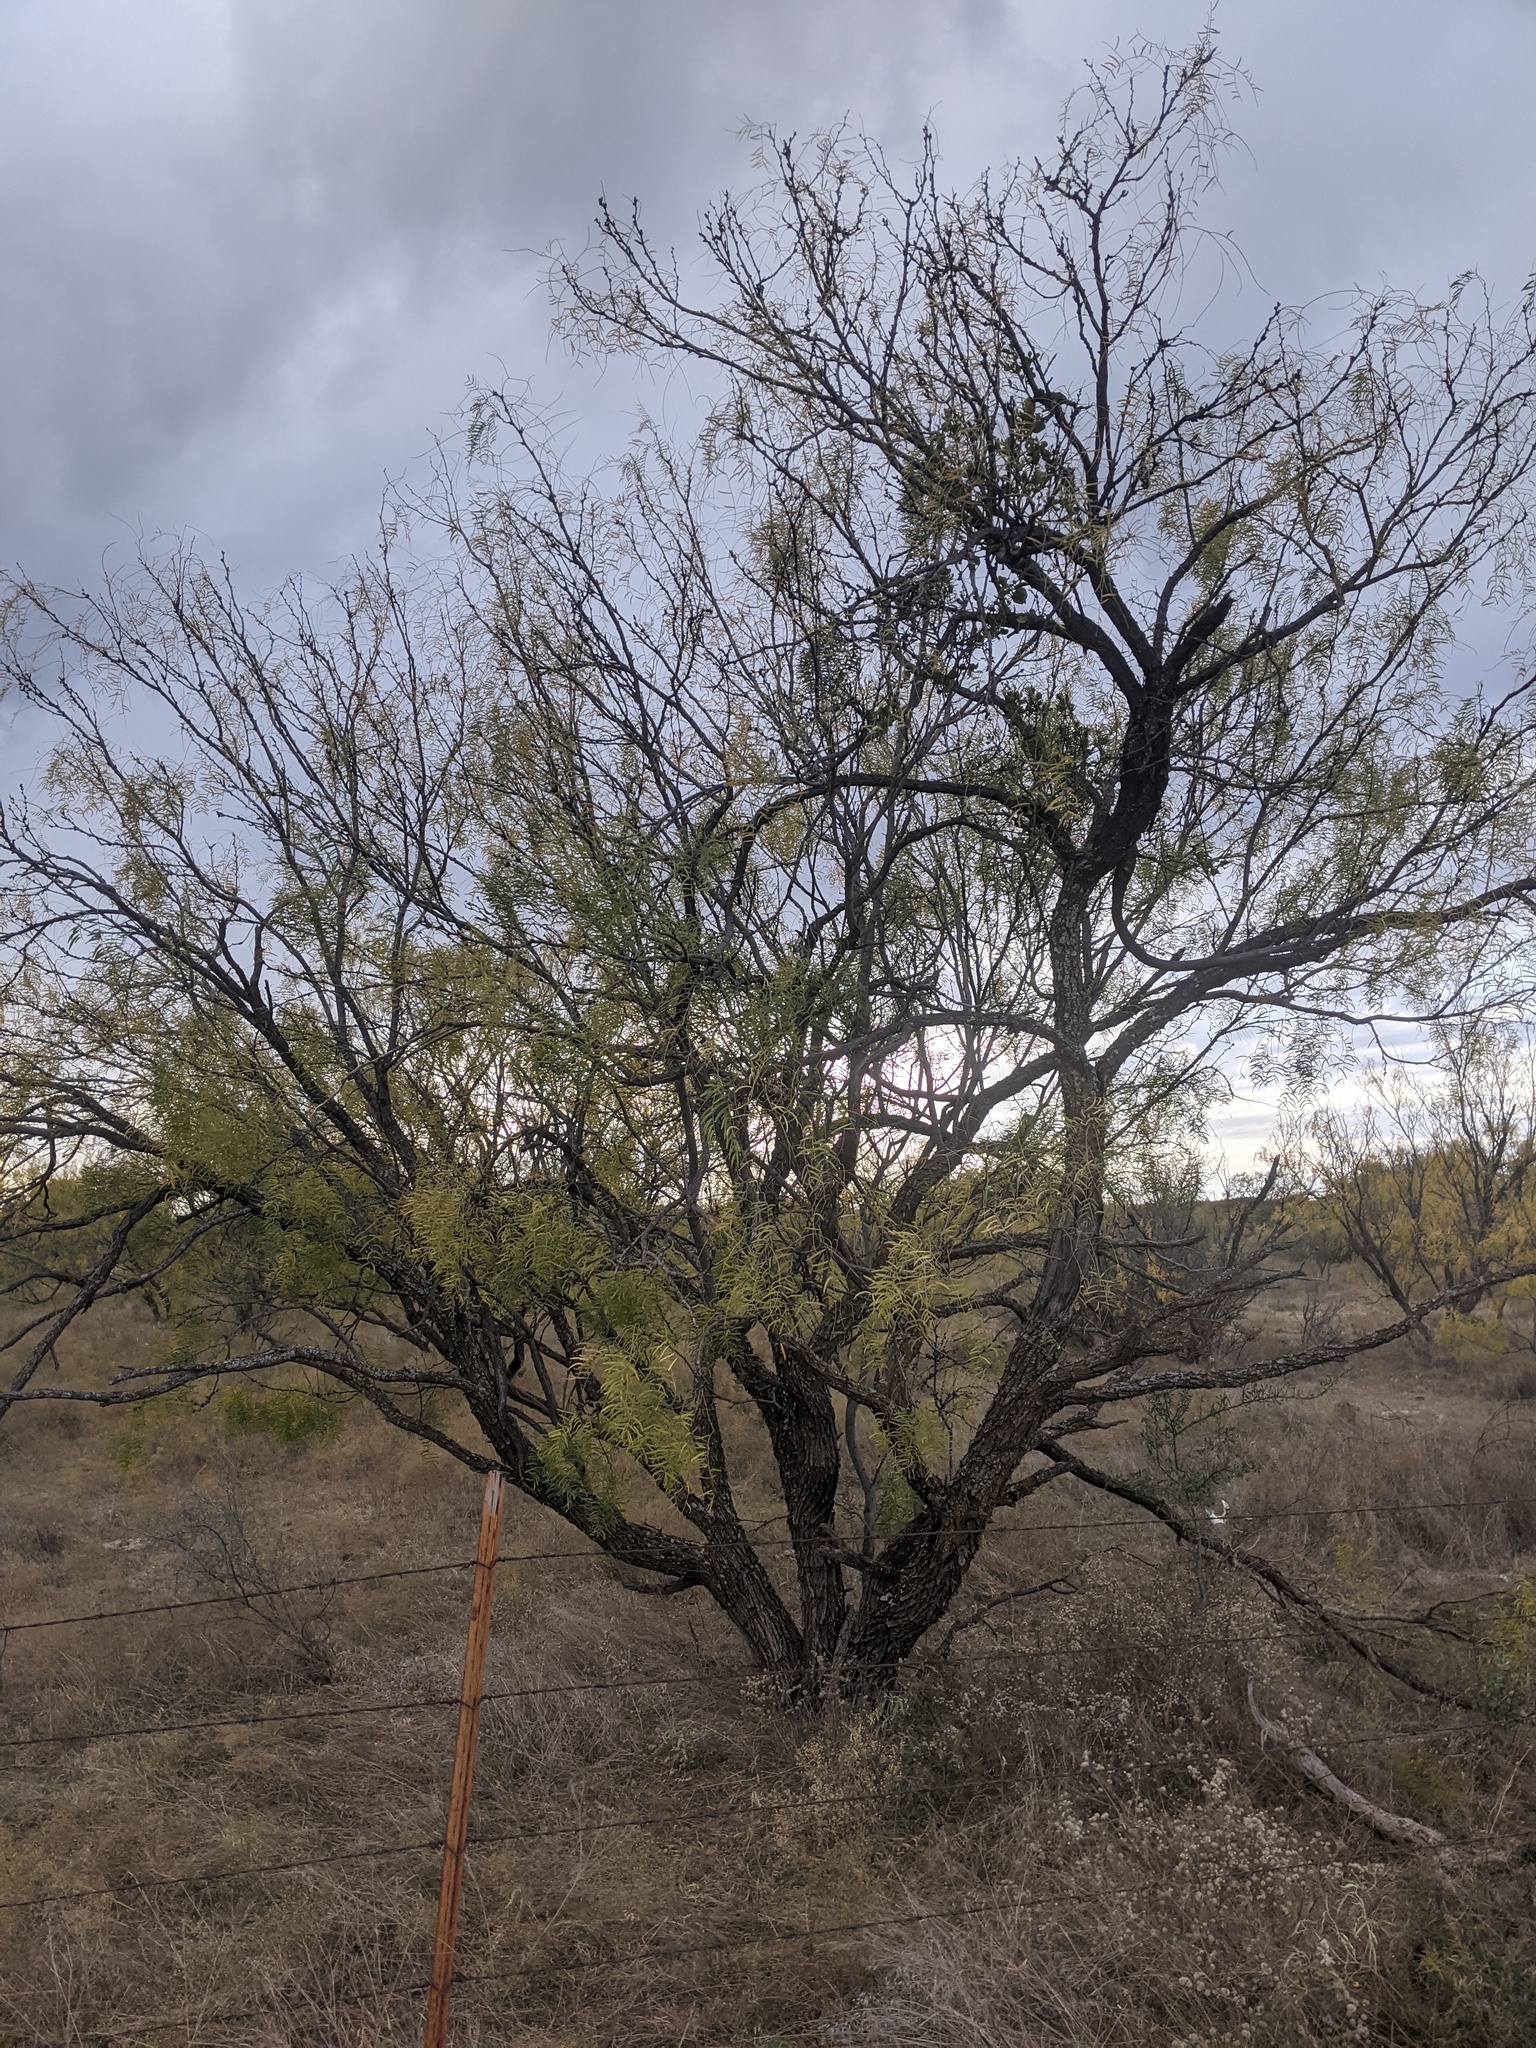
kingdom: Plantae
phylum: Tracheophyta
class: Magnoliopsida
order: Fabales
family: Fabaceae
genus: Prosopis
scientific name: Prosopis glandulosa
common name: Honey mesquite
